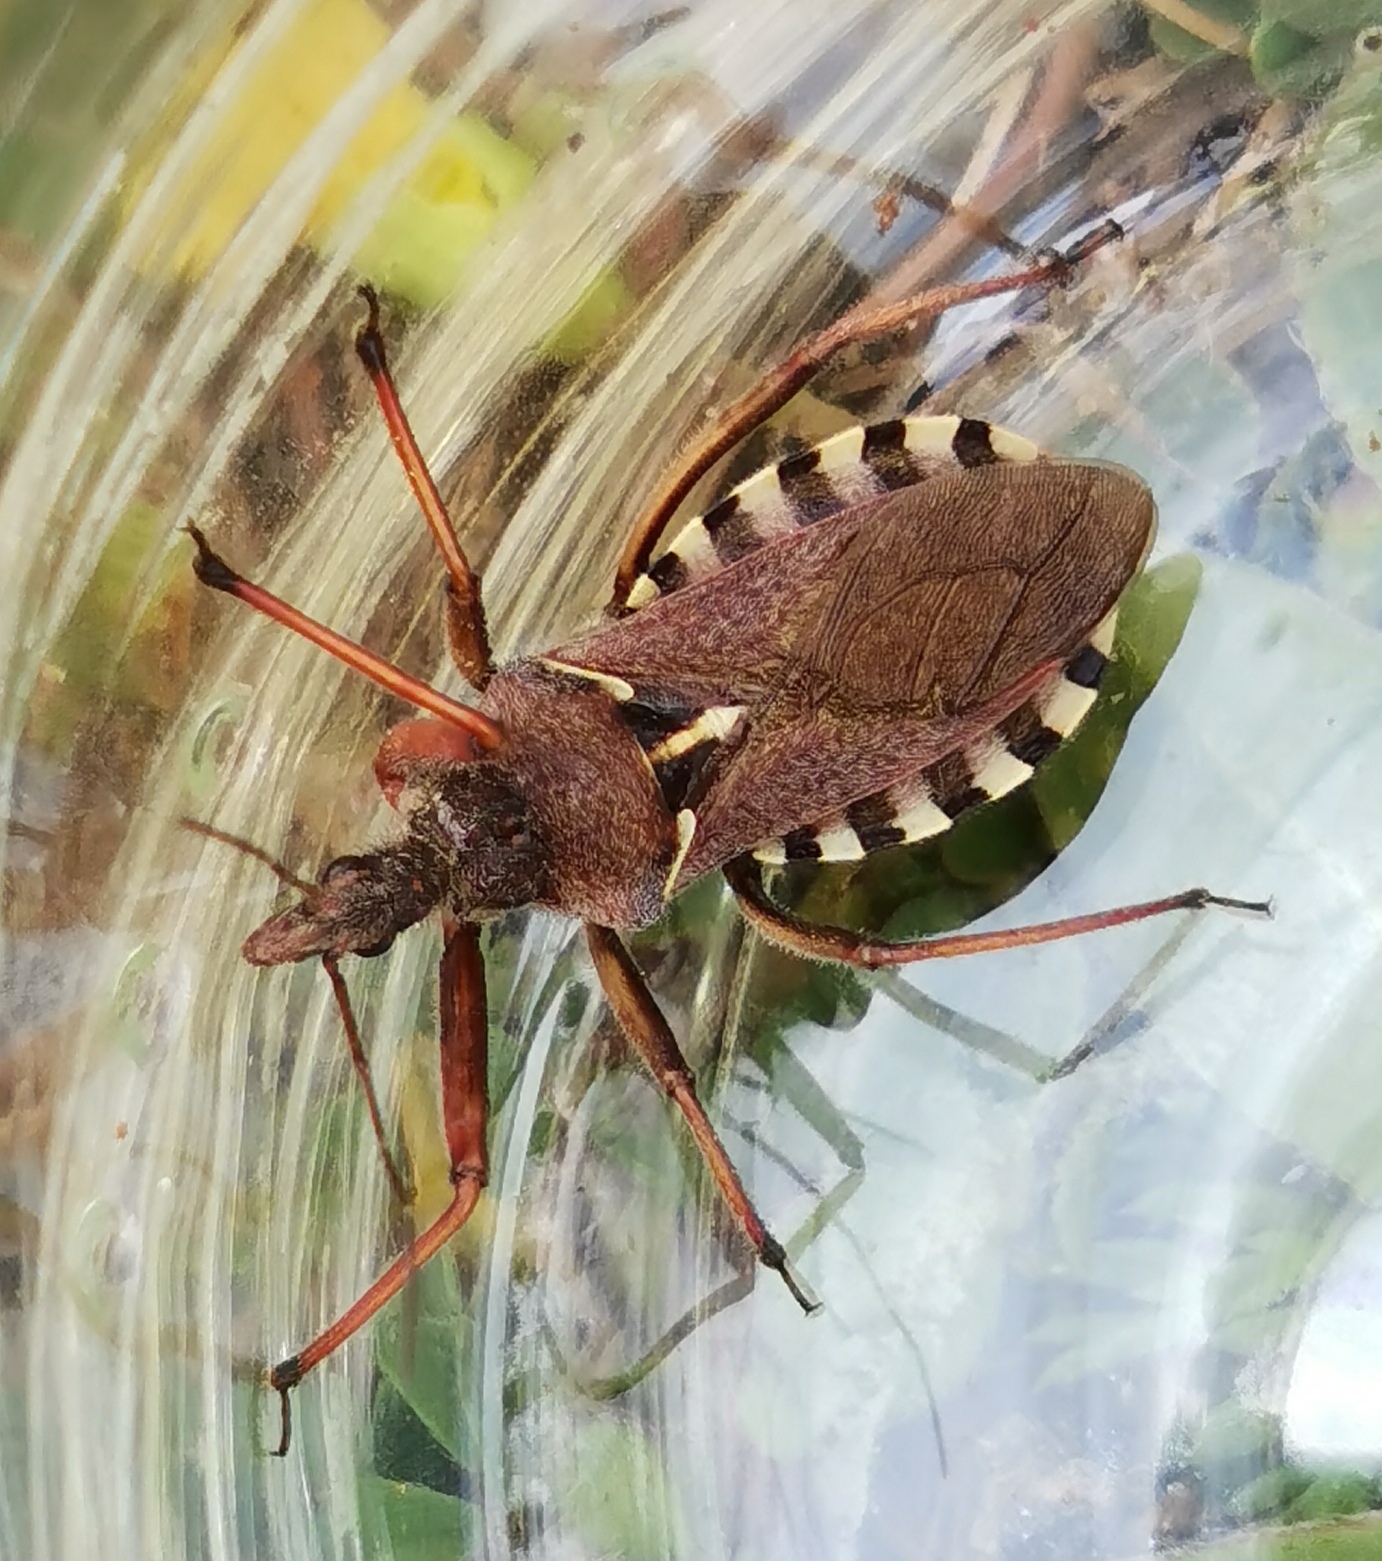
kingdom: Animalia
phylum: Arthropoda
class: Insecta
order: Hemiptera
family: Reduviidae
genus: Rhynocoris
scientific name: Rhynocoris erythropus
